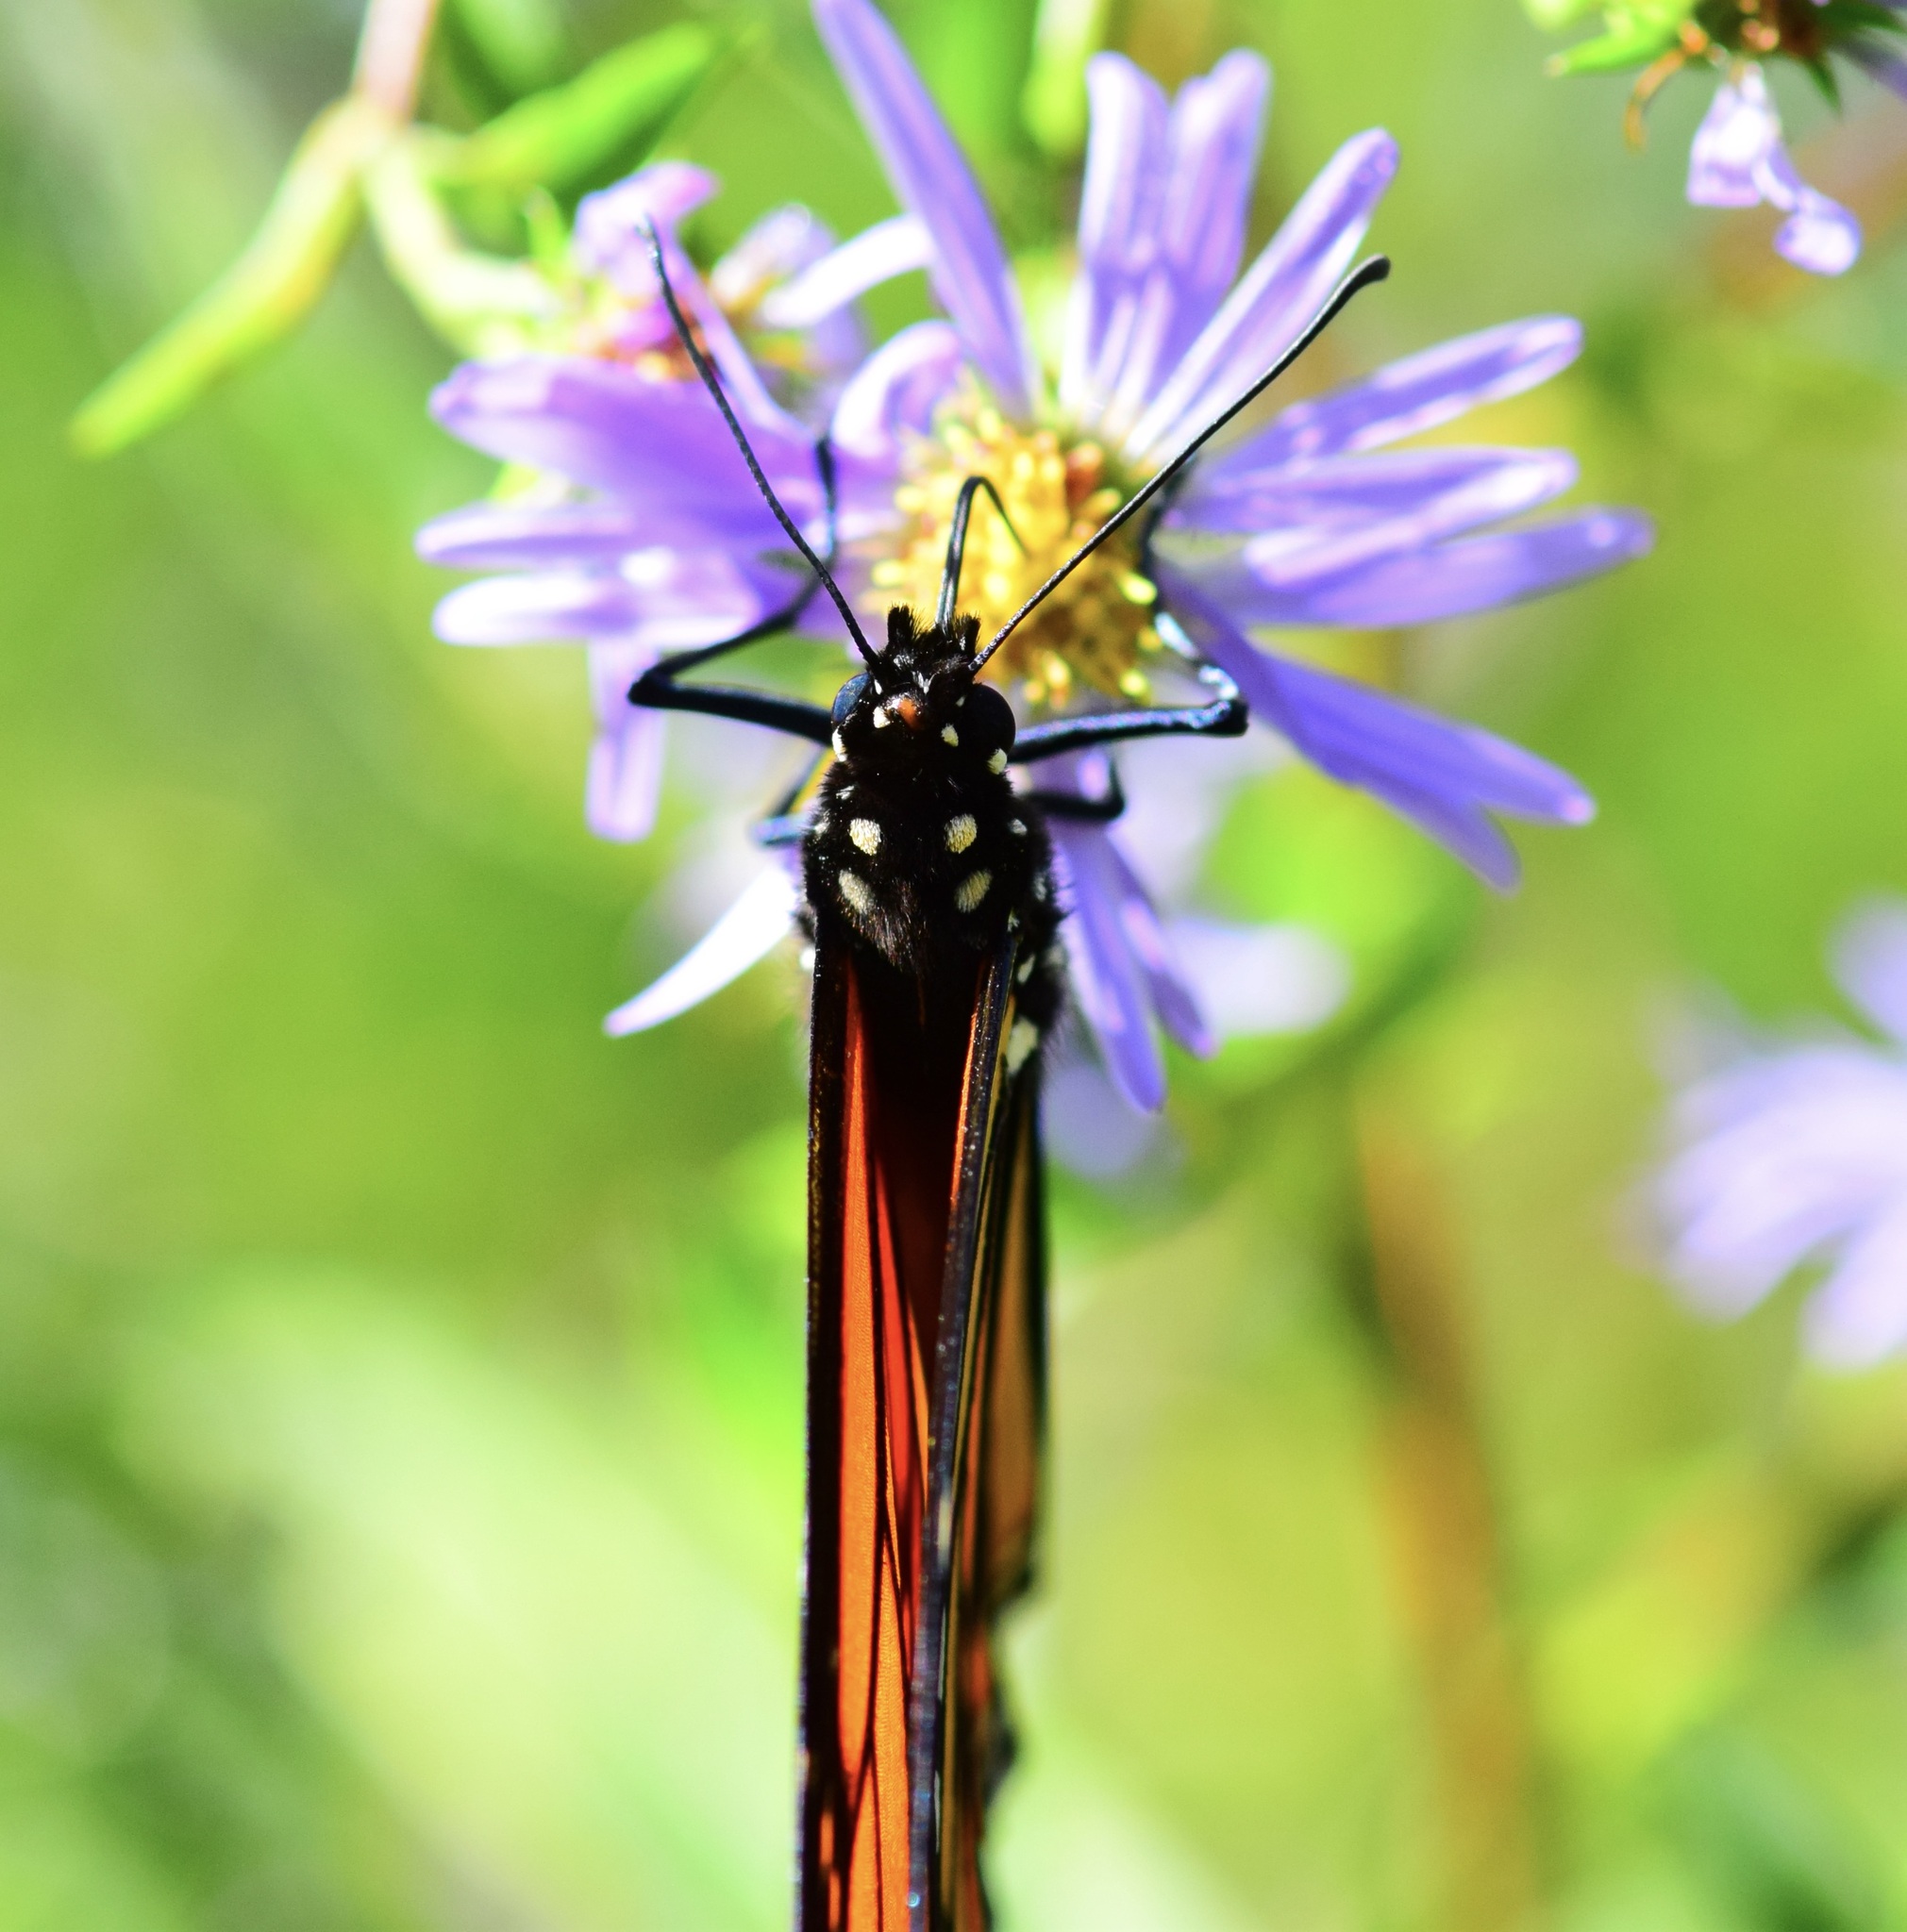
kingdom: Animalia
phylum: Arthropoda
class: Insecta
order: Lepidoptera
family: Nymphalidae
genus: Danaus
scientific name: Danaus plexippus
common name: Monarch
